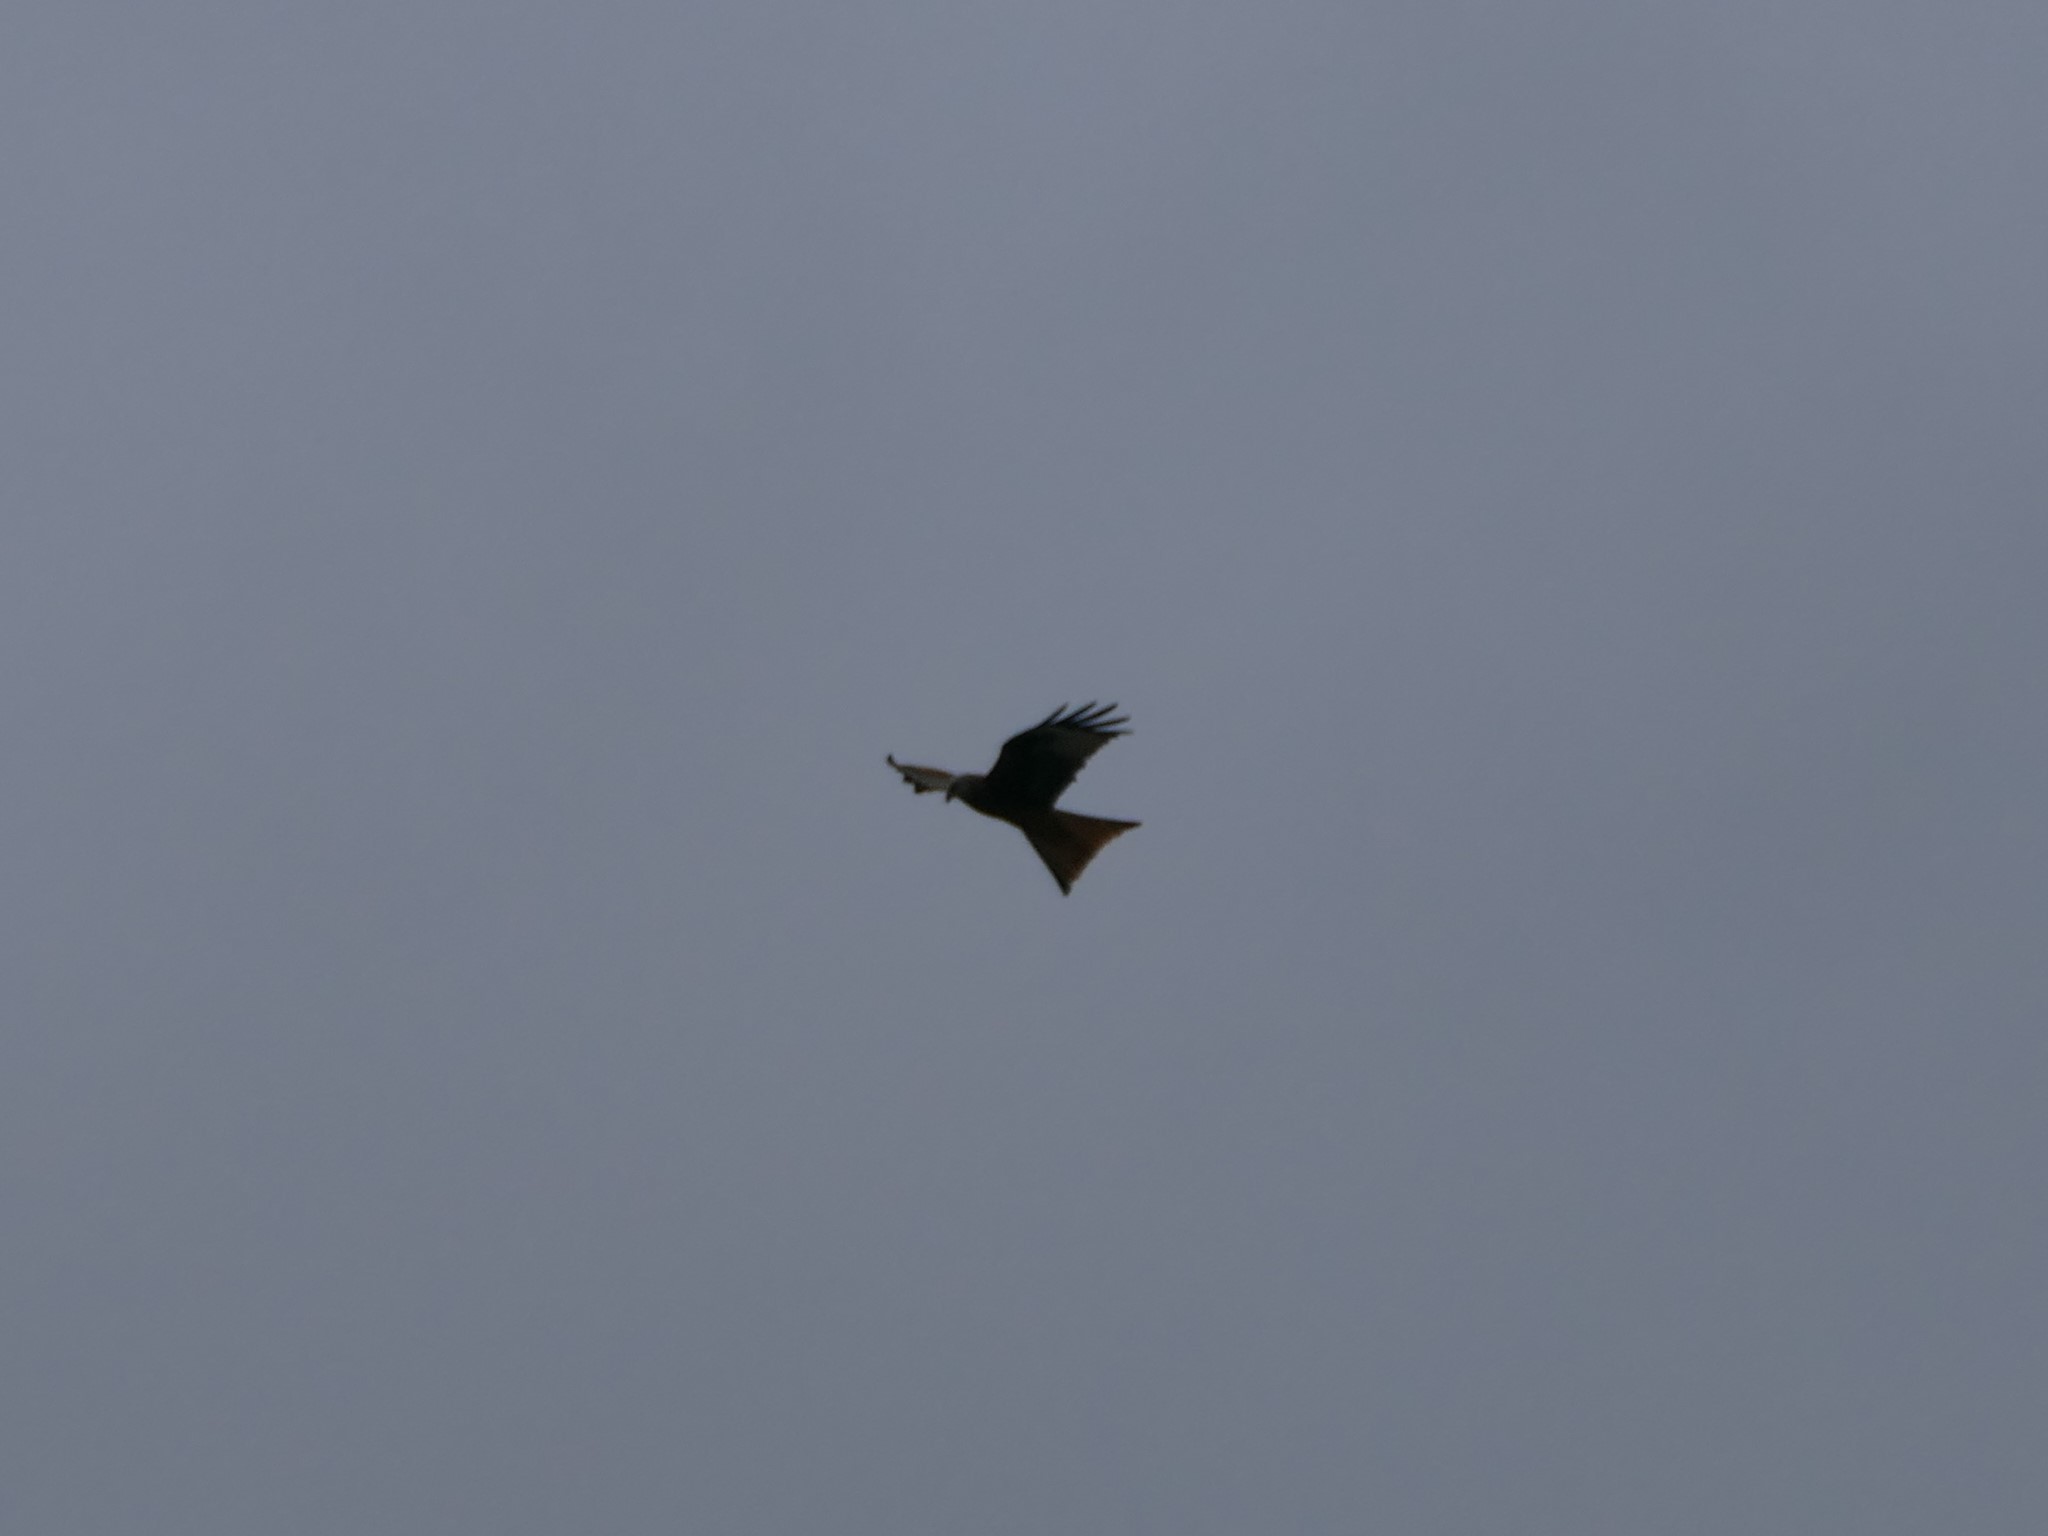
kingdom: Animalia
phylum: Chordata
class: Aves
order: Accipitriformes
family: Accipitridae
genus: Milvus
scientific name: Milvus milvus
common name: Red kite
